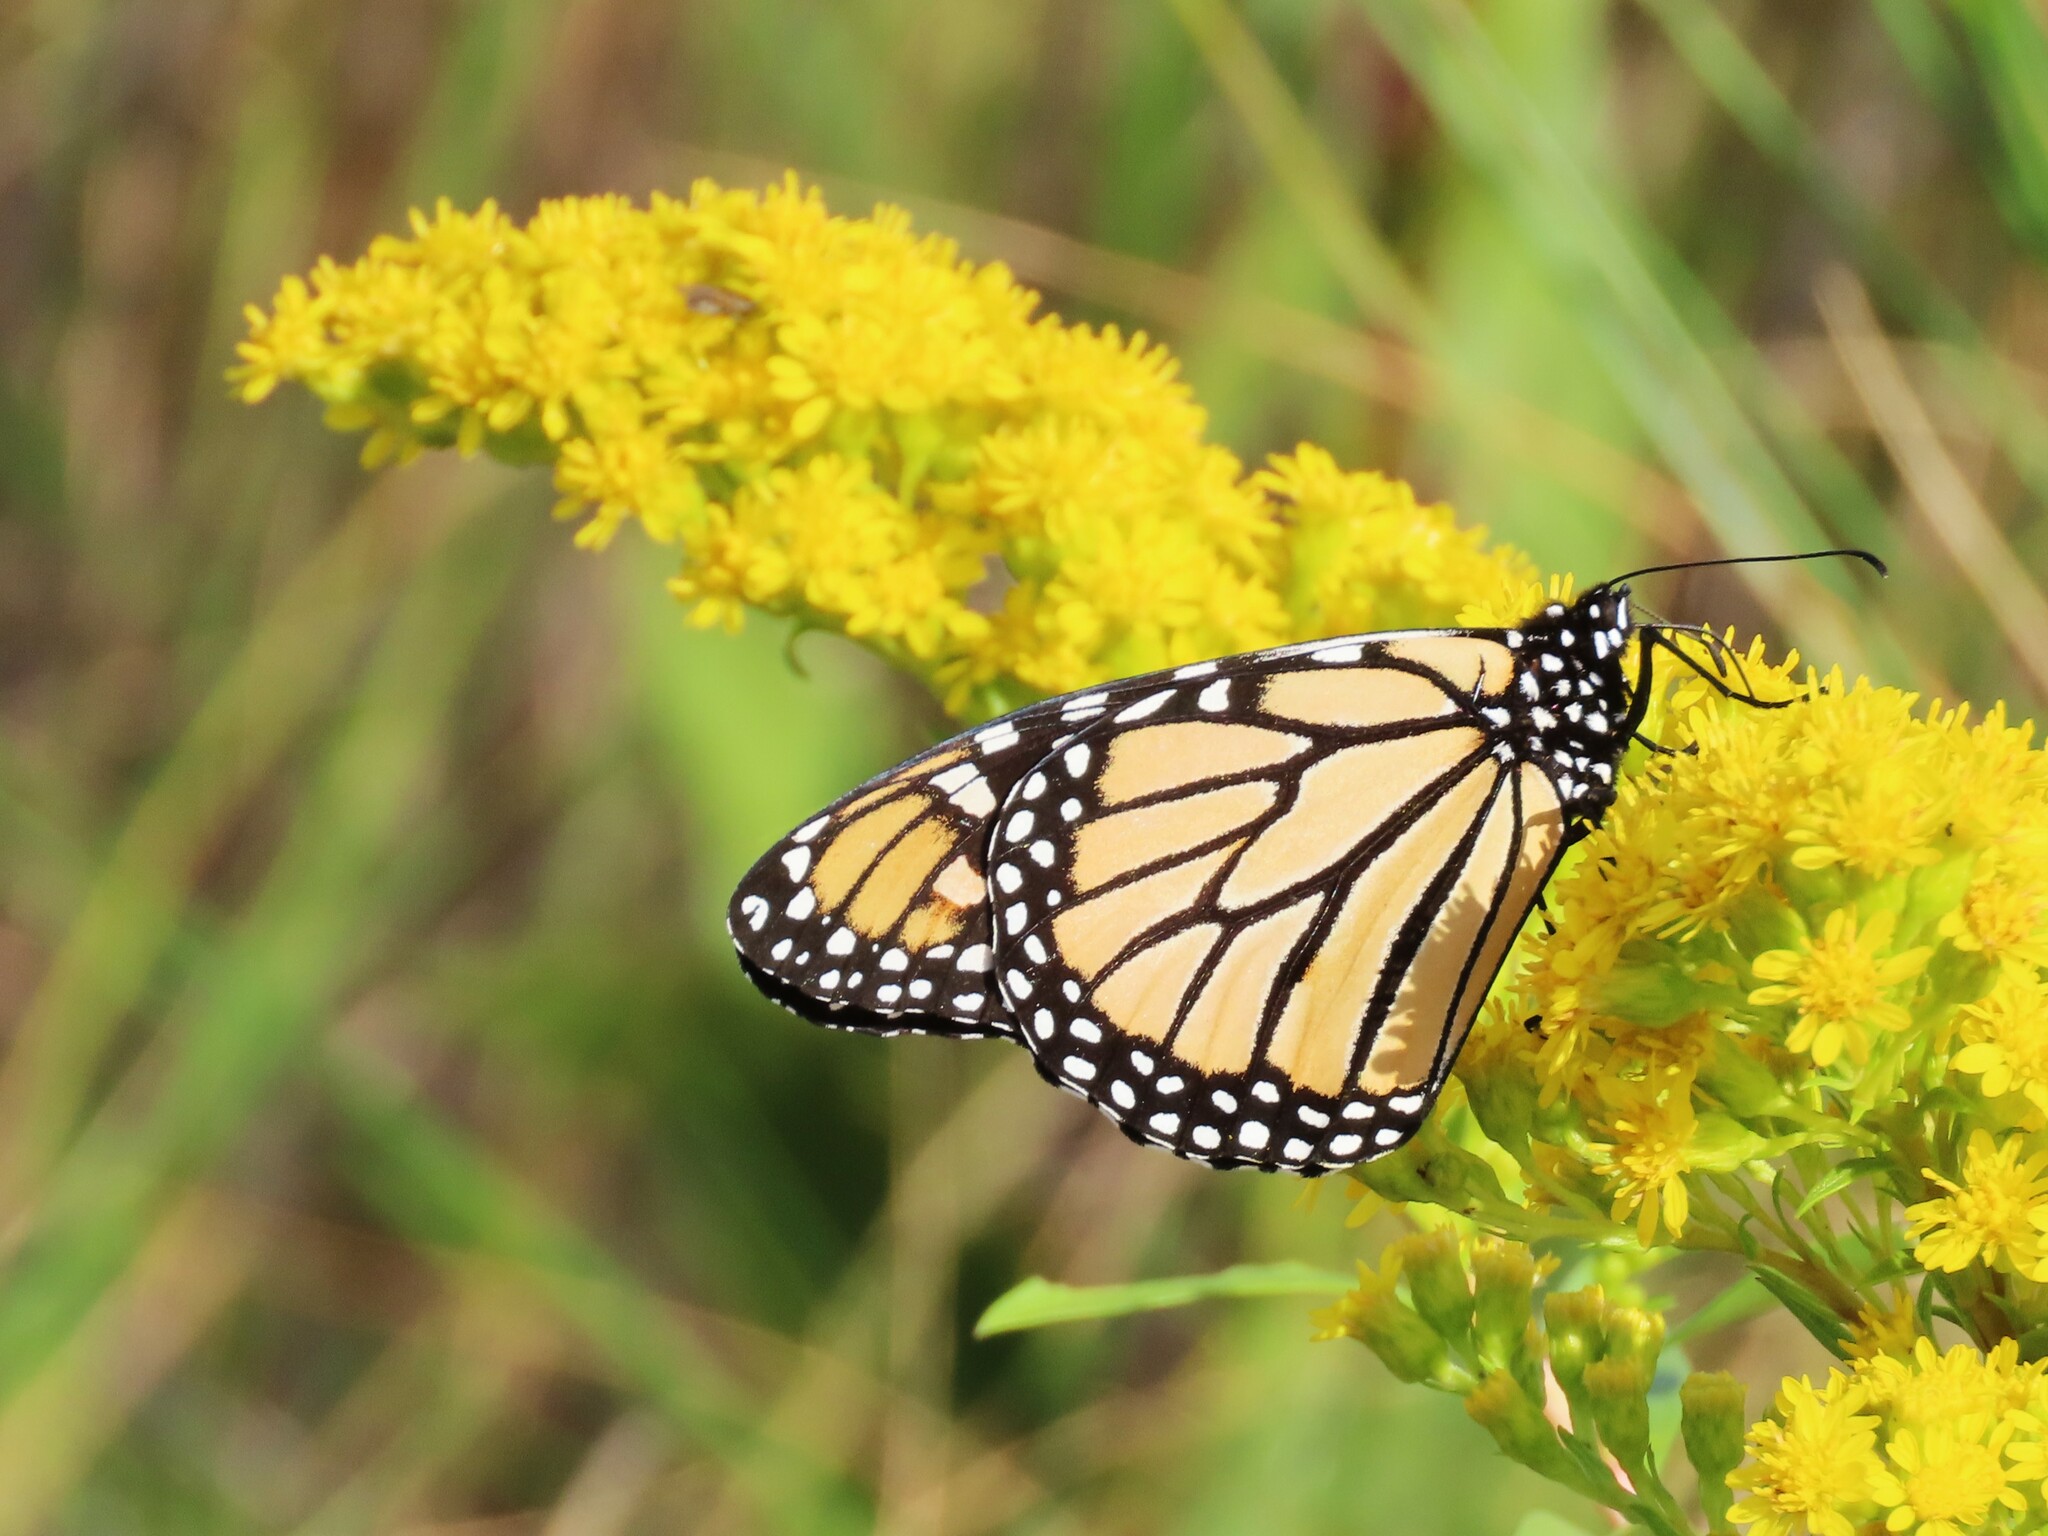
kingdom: Animalia
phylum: Arthropoda
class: Insecta
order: Lepidoptera
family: Nymphalidae
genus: Danaus
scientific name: Danaus plexippus
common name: Monarch
